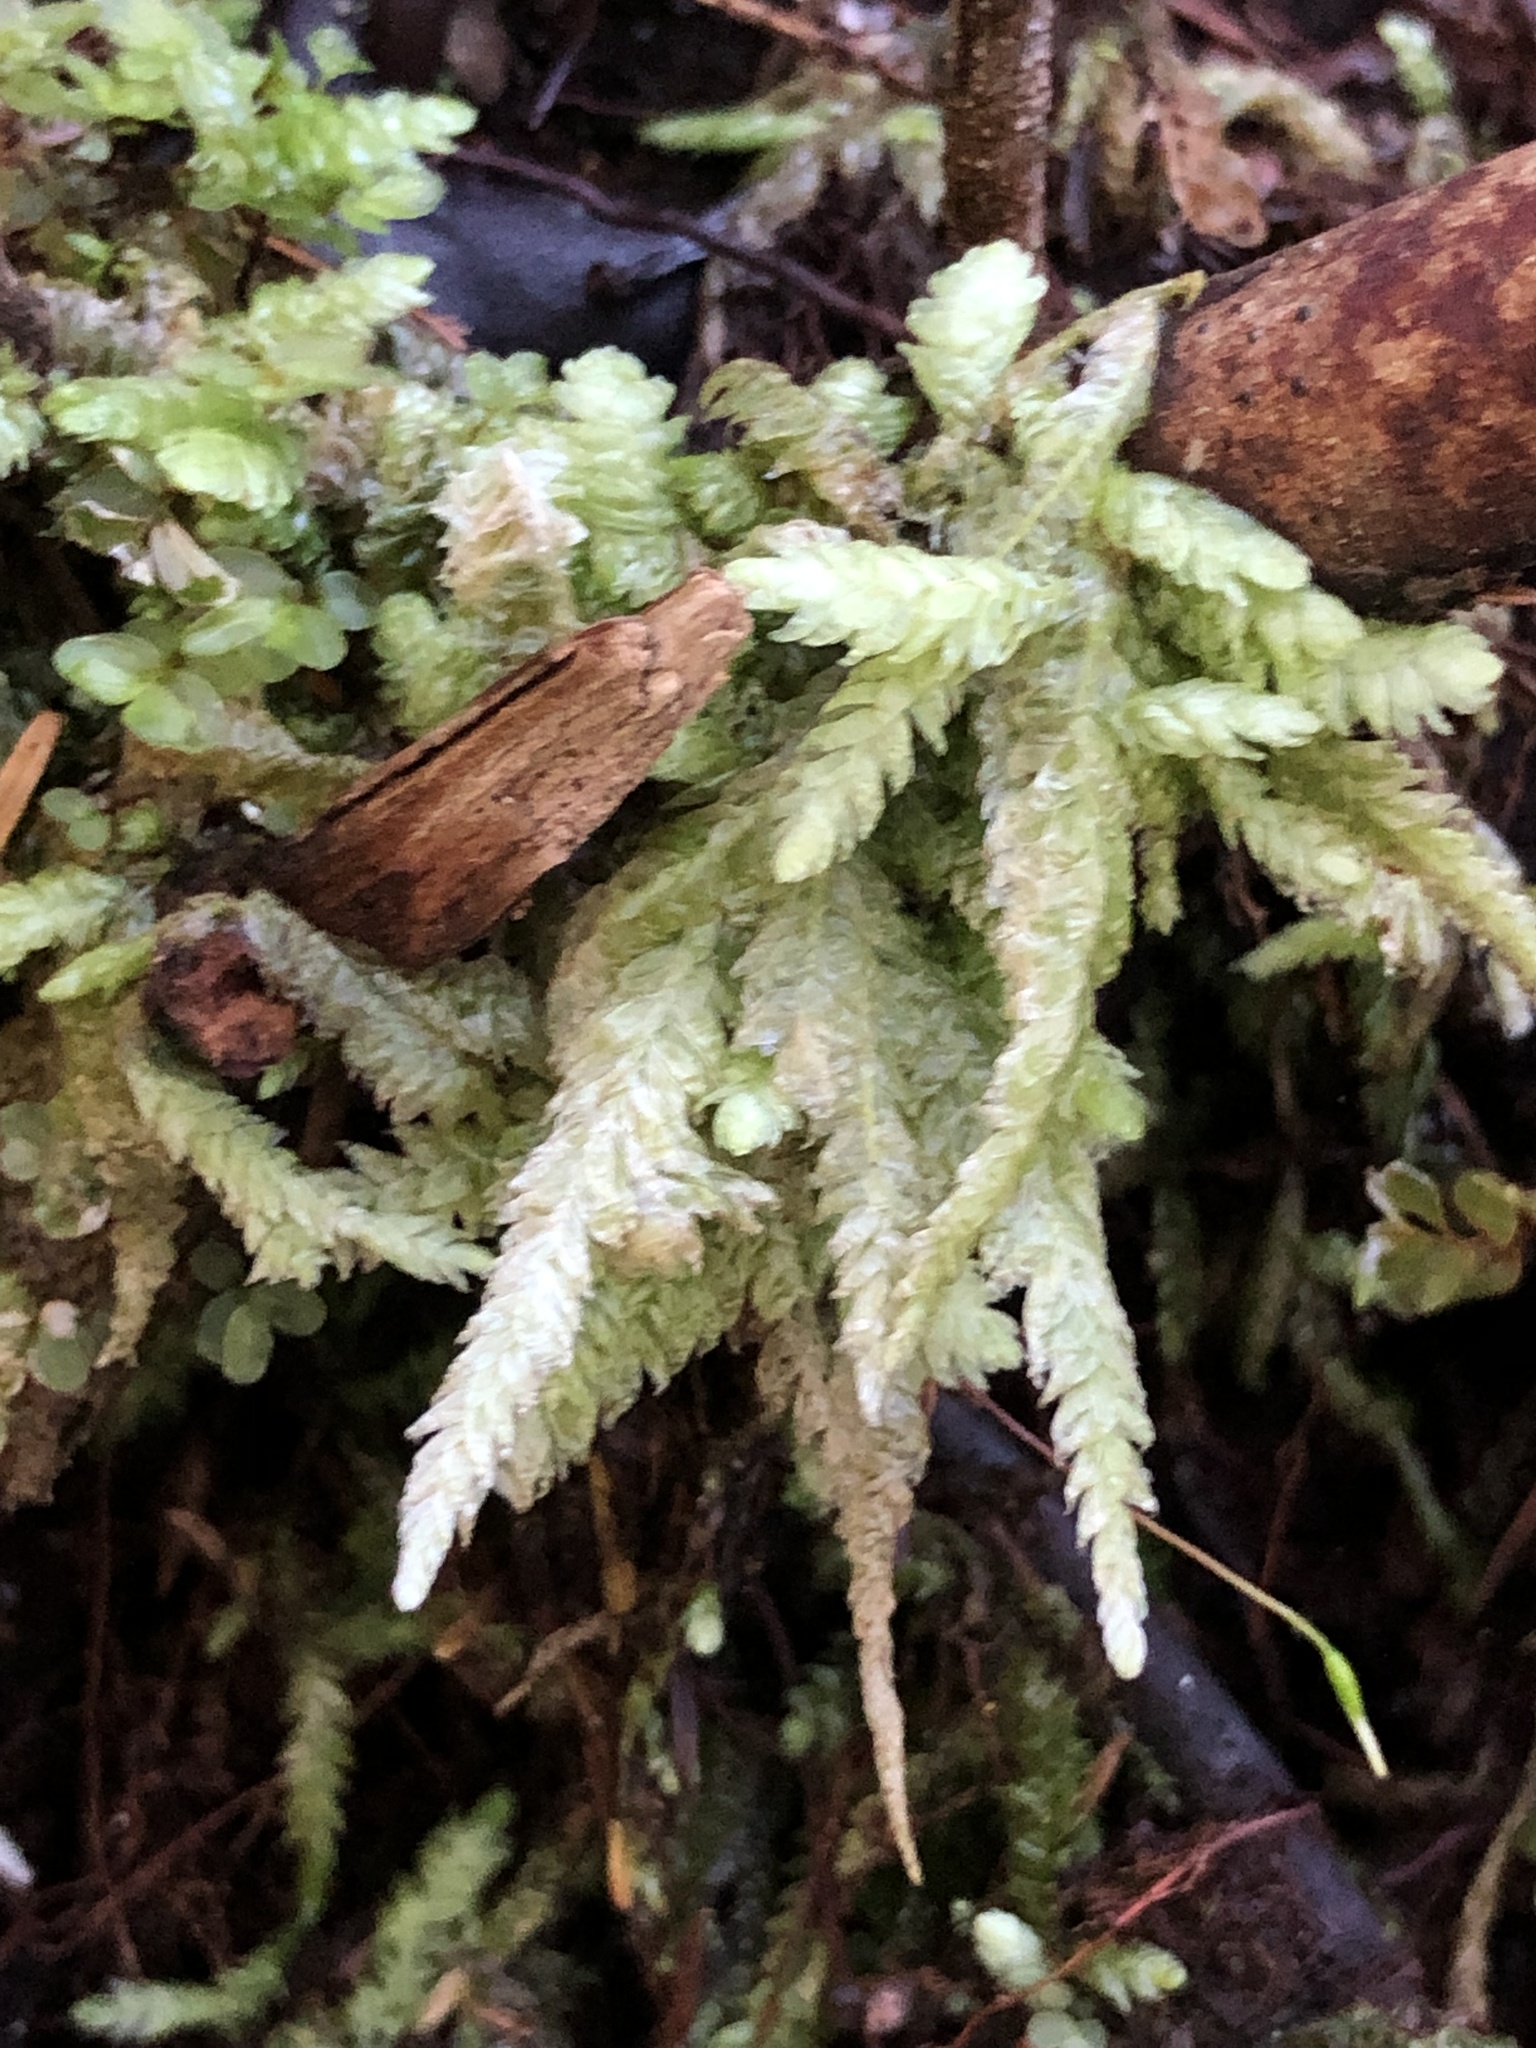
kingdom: Plantae
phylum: Bryophyta
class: Bryopsida
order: Hypnales
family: Plagiotheciaceae
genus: Plagiothecium
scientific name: Plagiothecium undulatum
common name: Waved silk-moss
